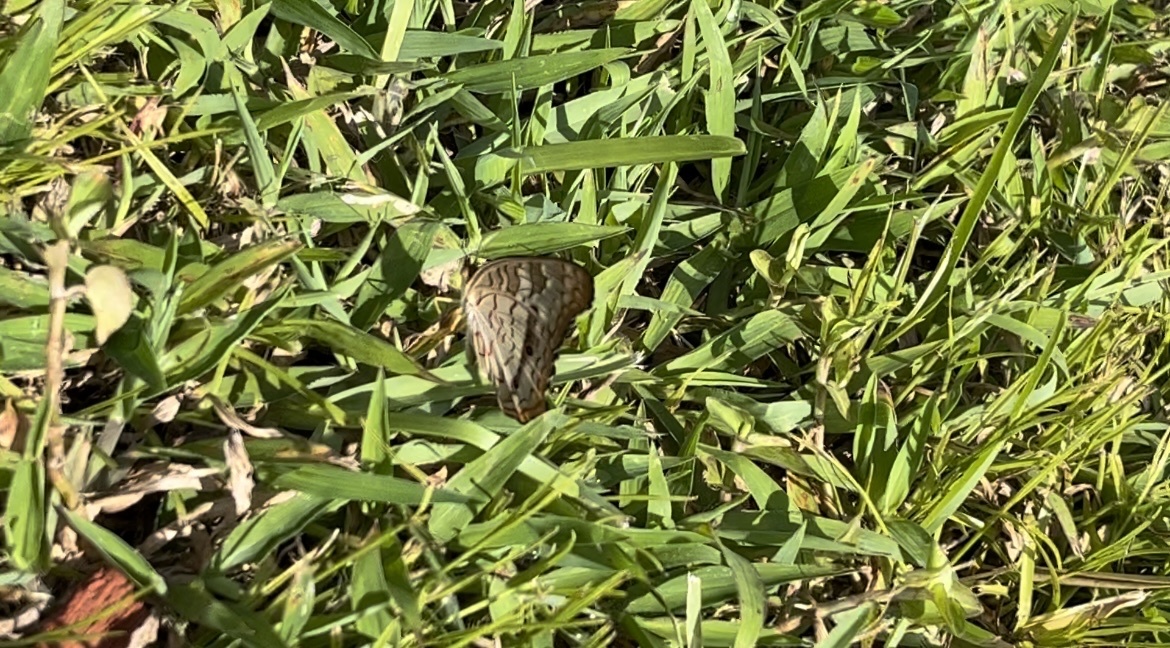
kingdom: Animalia
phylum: Arthropoda
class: Insecta
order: Lepidoptera
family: Nymphalidae
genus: Anartia
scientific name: Anartia jatrophae
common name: White peacock
